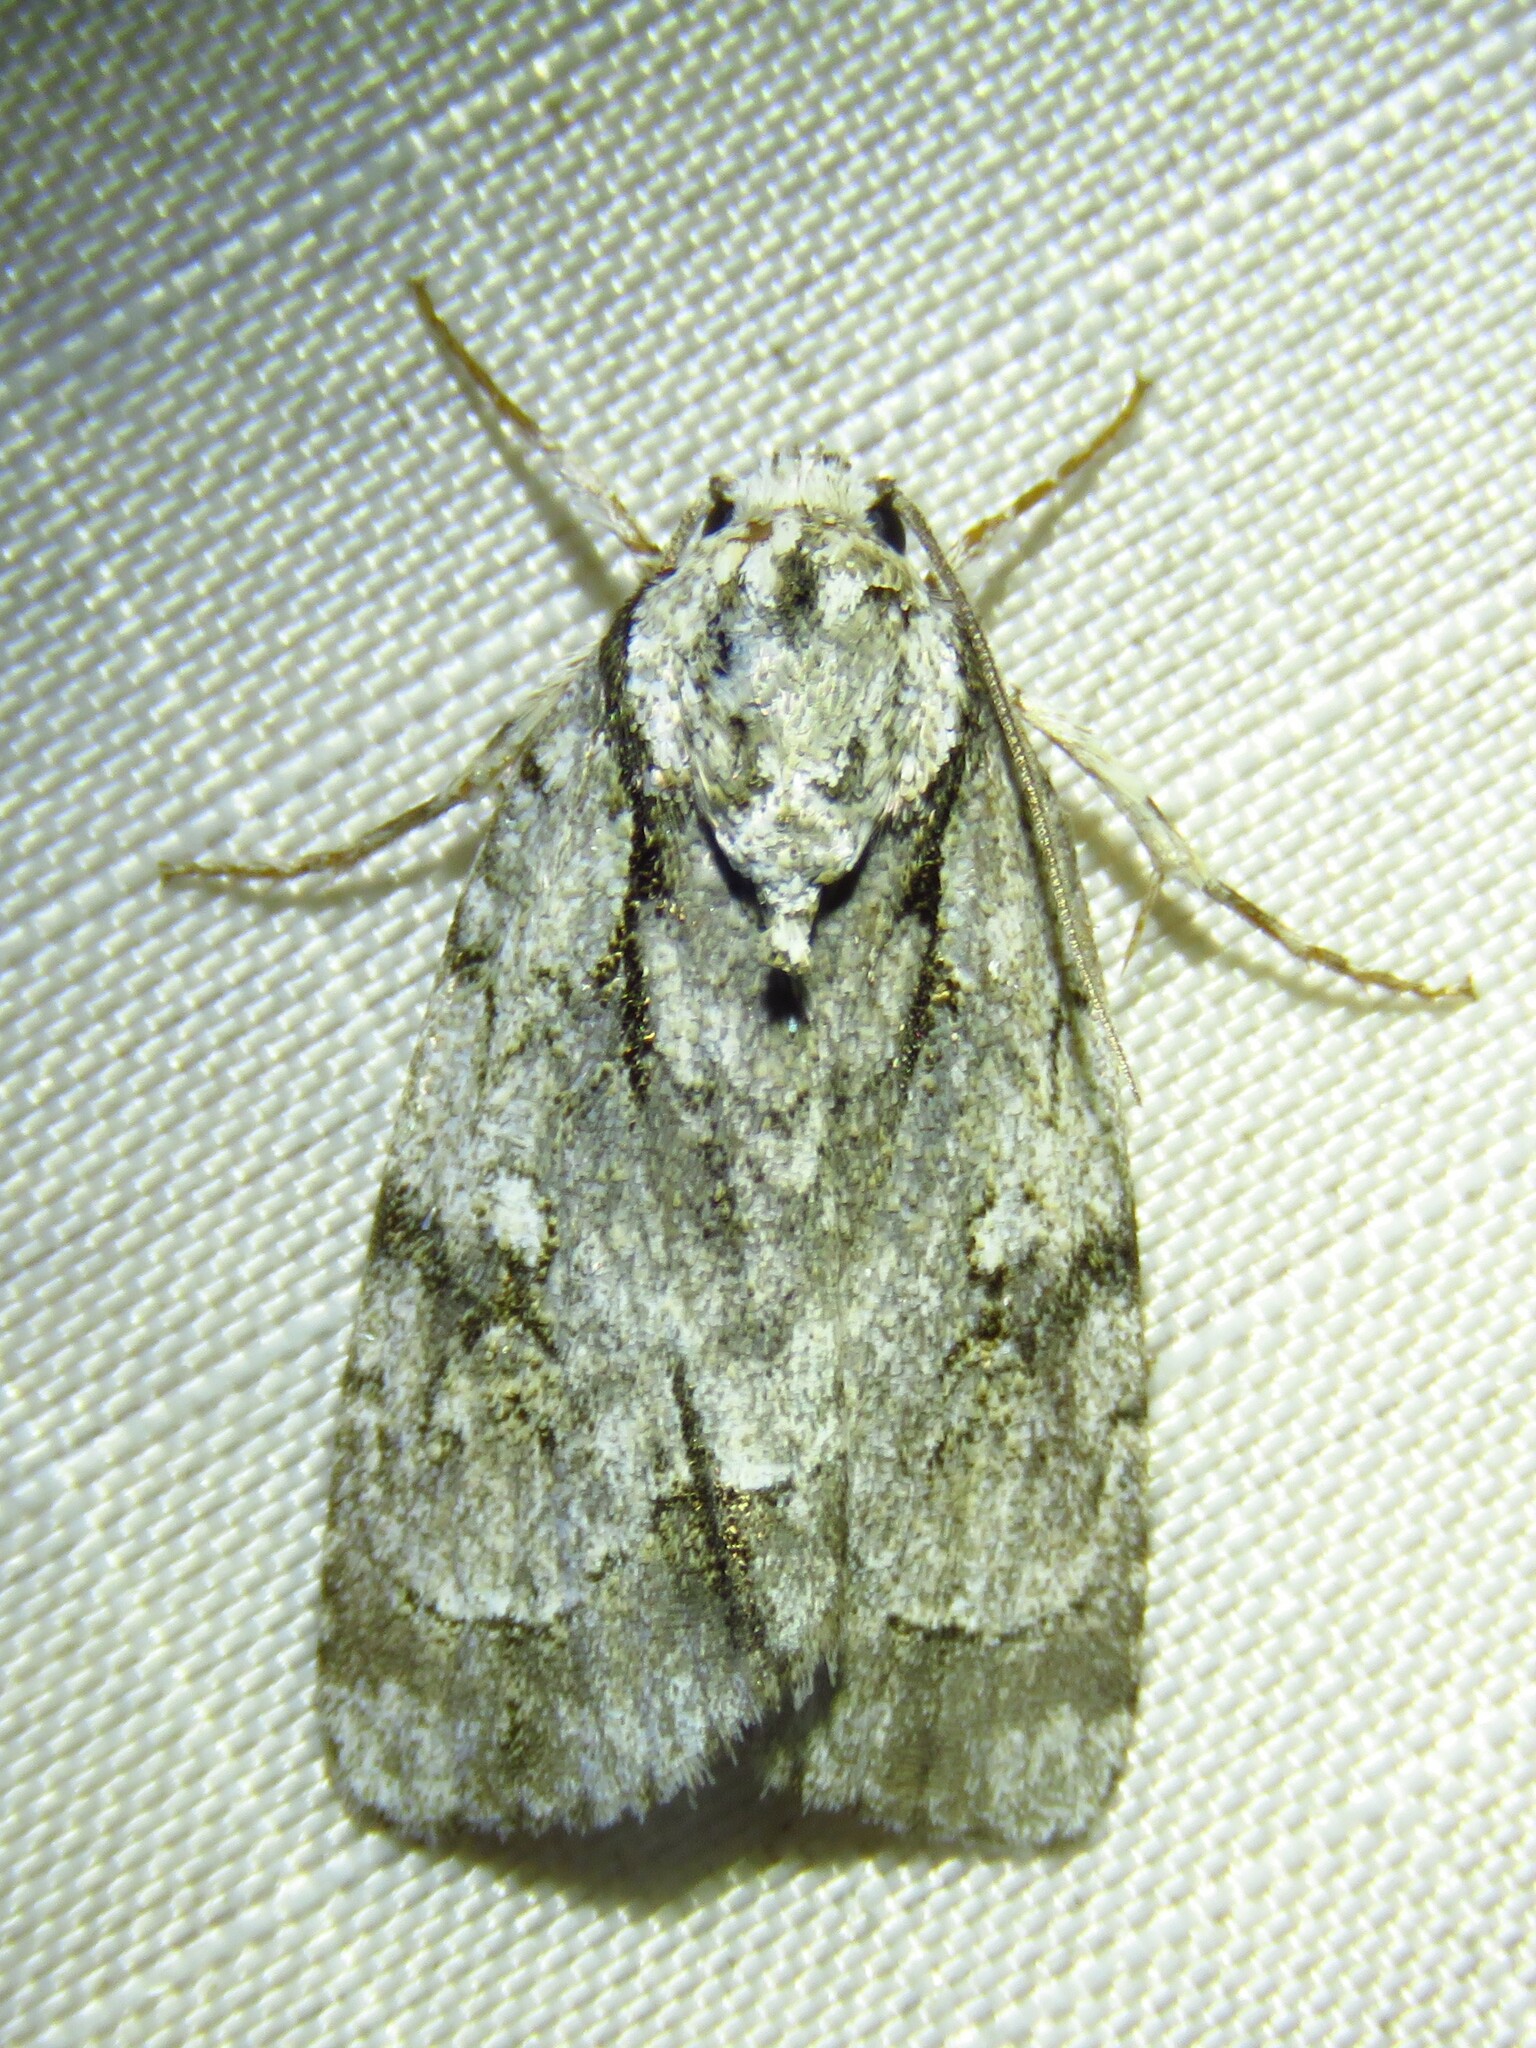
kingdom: Animalia
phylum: Arthropoda
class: Insecta
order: Lepidoptera
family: Noctuidae
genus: Acronicta
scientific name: Acronicta vinnula
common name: Delightful dagger
